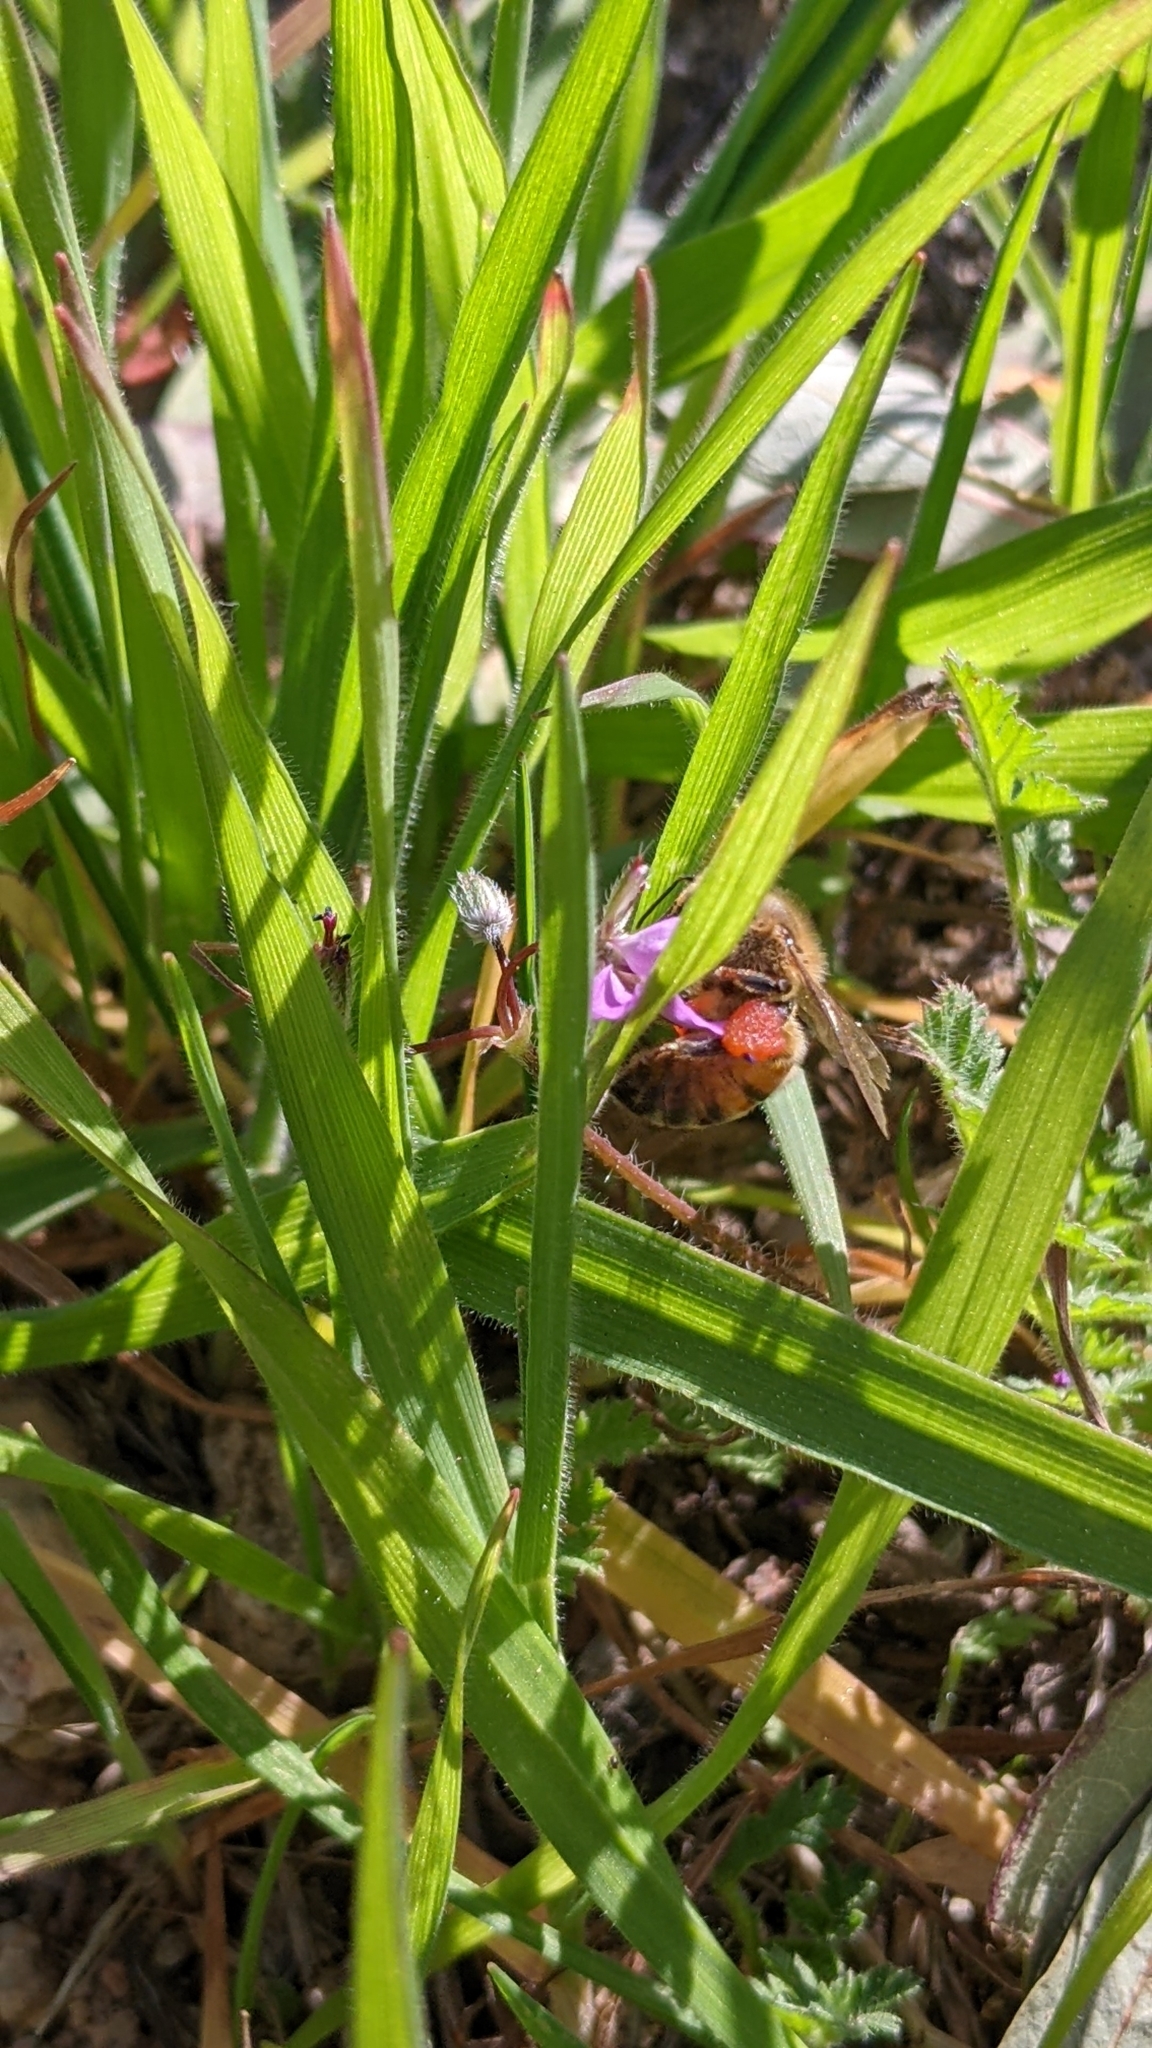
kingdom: Animalia
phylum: Arthropoda
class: Insecta
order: Hymenoptera
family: Apidae
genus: Apis
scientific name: Apis mellifera
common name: Honey bee
